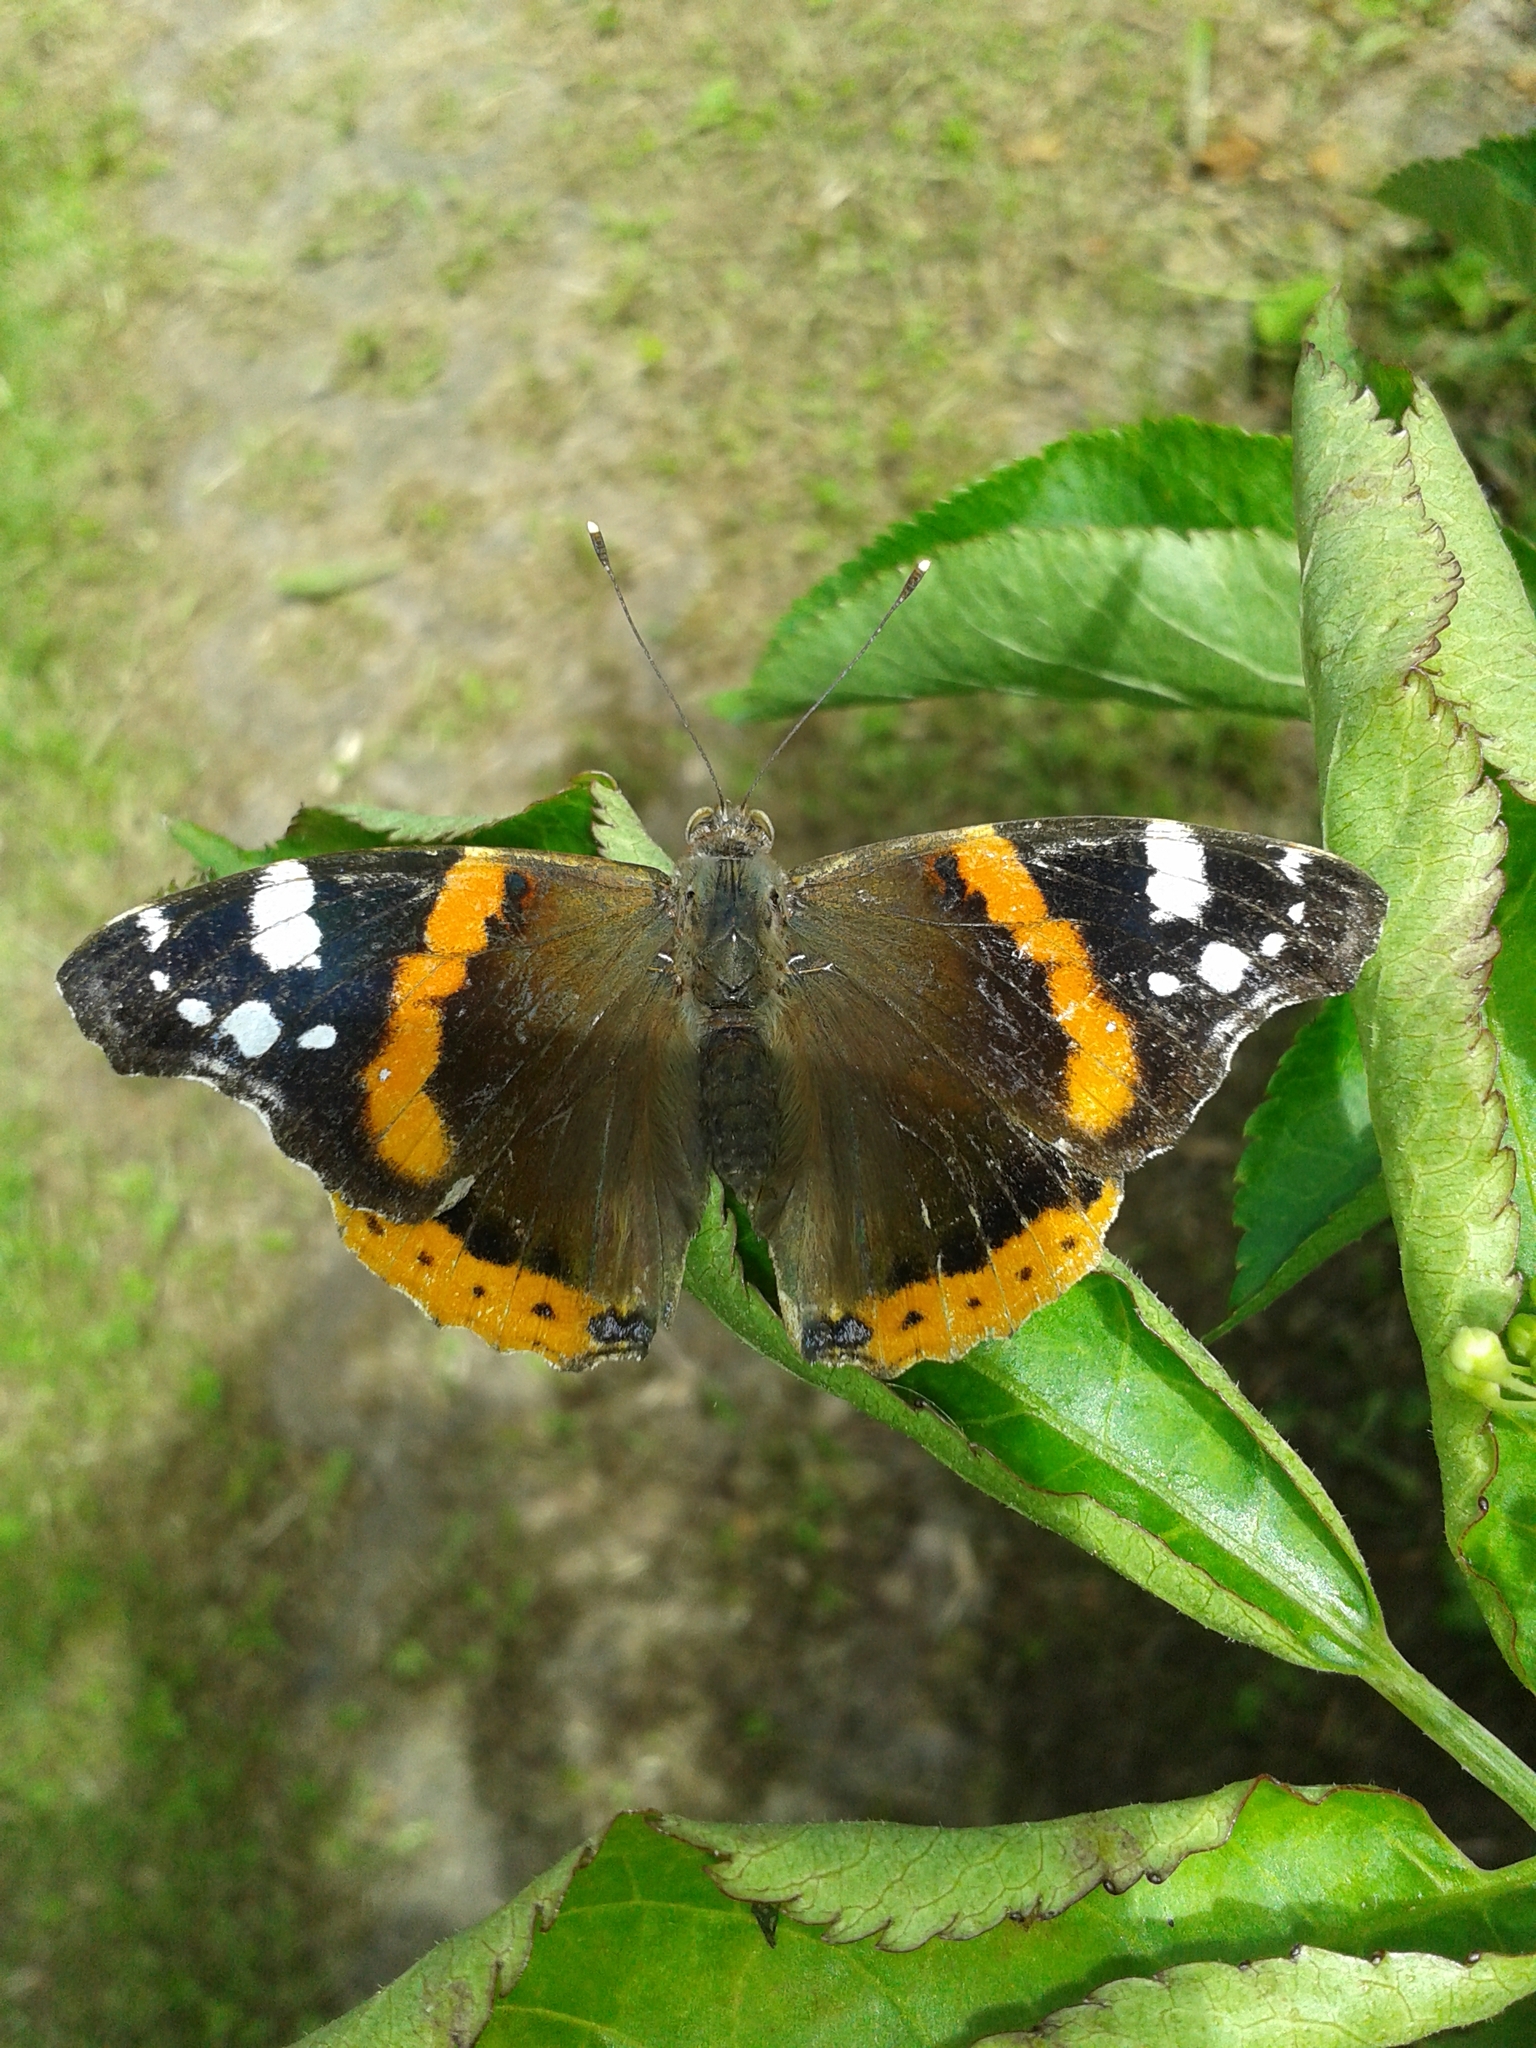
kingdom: Animalia
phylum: Arthropoda
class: Insecta
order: Lepidoptera
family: Nymphalidae
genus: Vanessa
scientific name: Vanessa atalanta
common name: Red admiral
